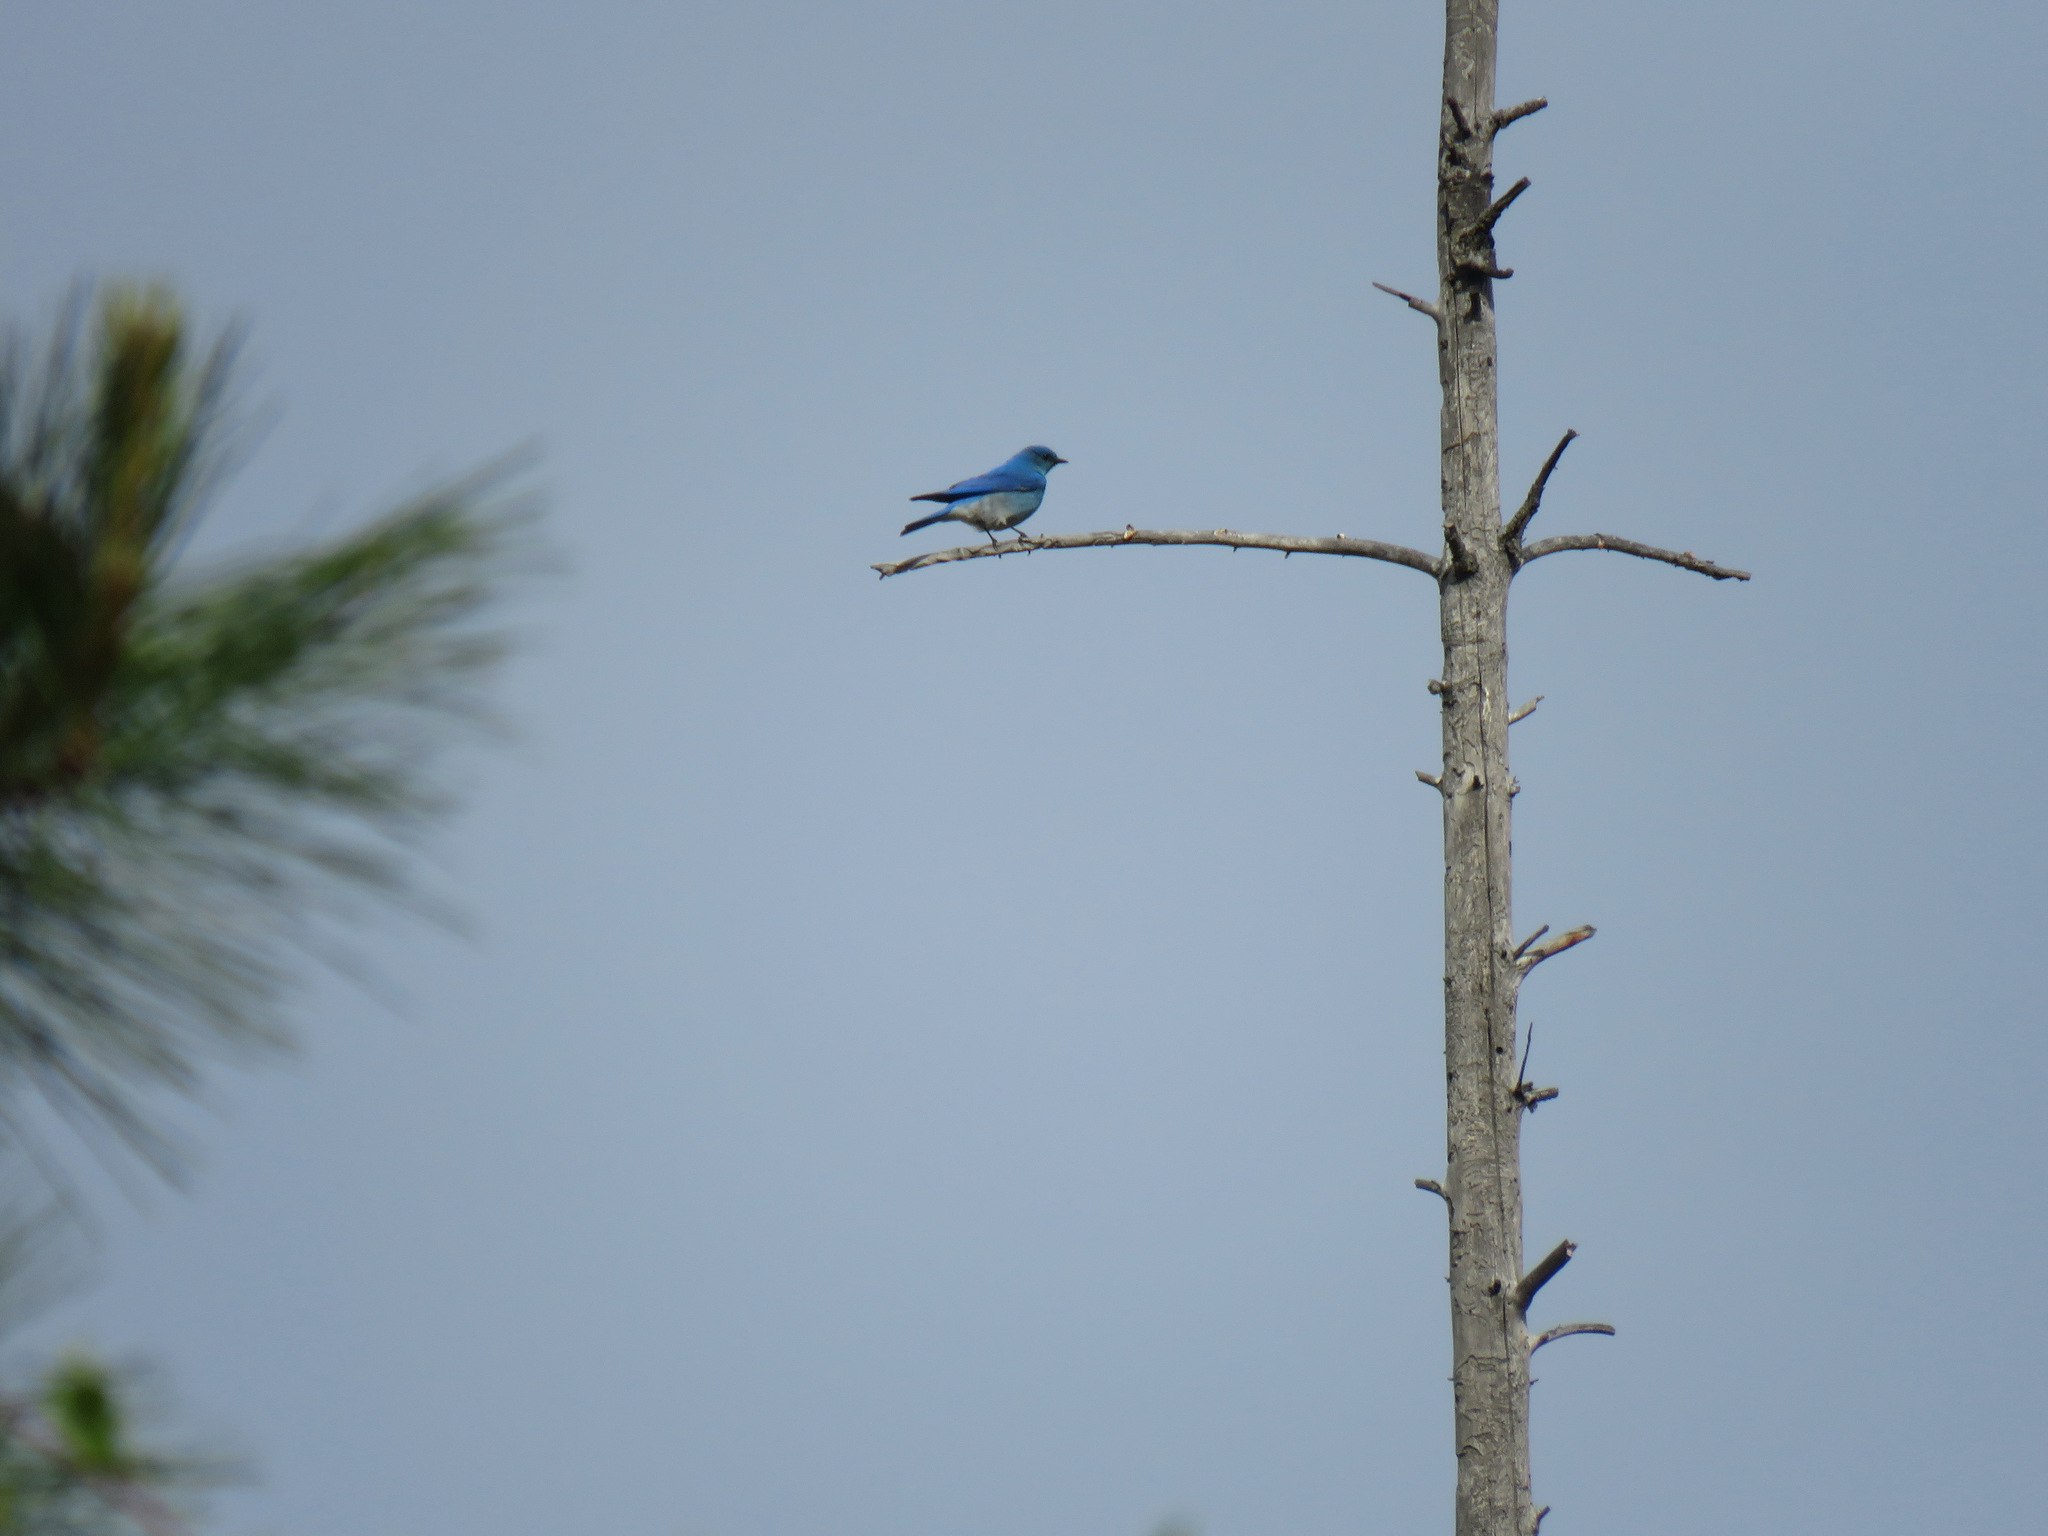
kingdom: Animalia
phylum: Chordata
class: Aves
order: Passeriformes
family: Turdidae
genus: Sialia
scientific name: Sialia currucoides
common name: Mountain bluebird
